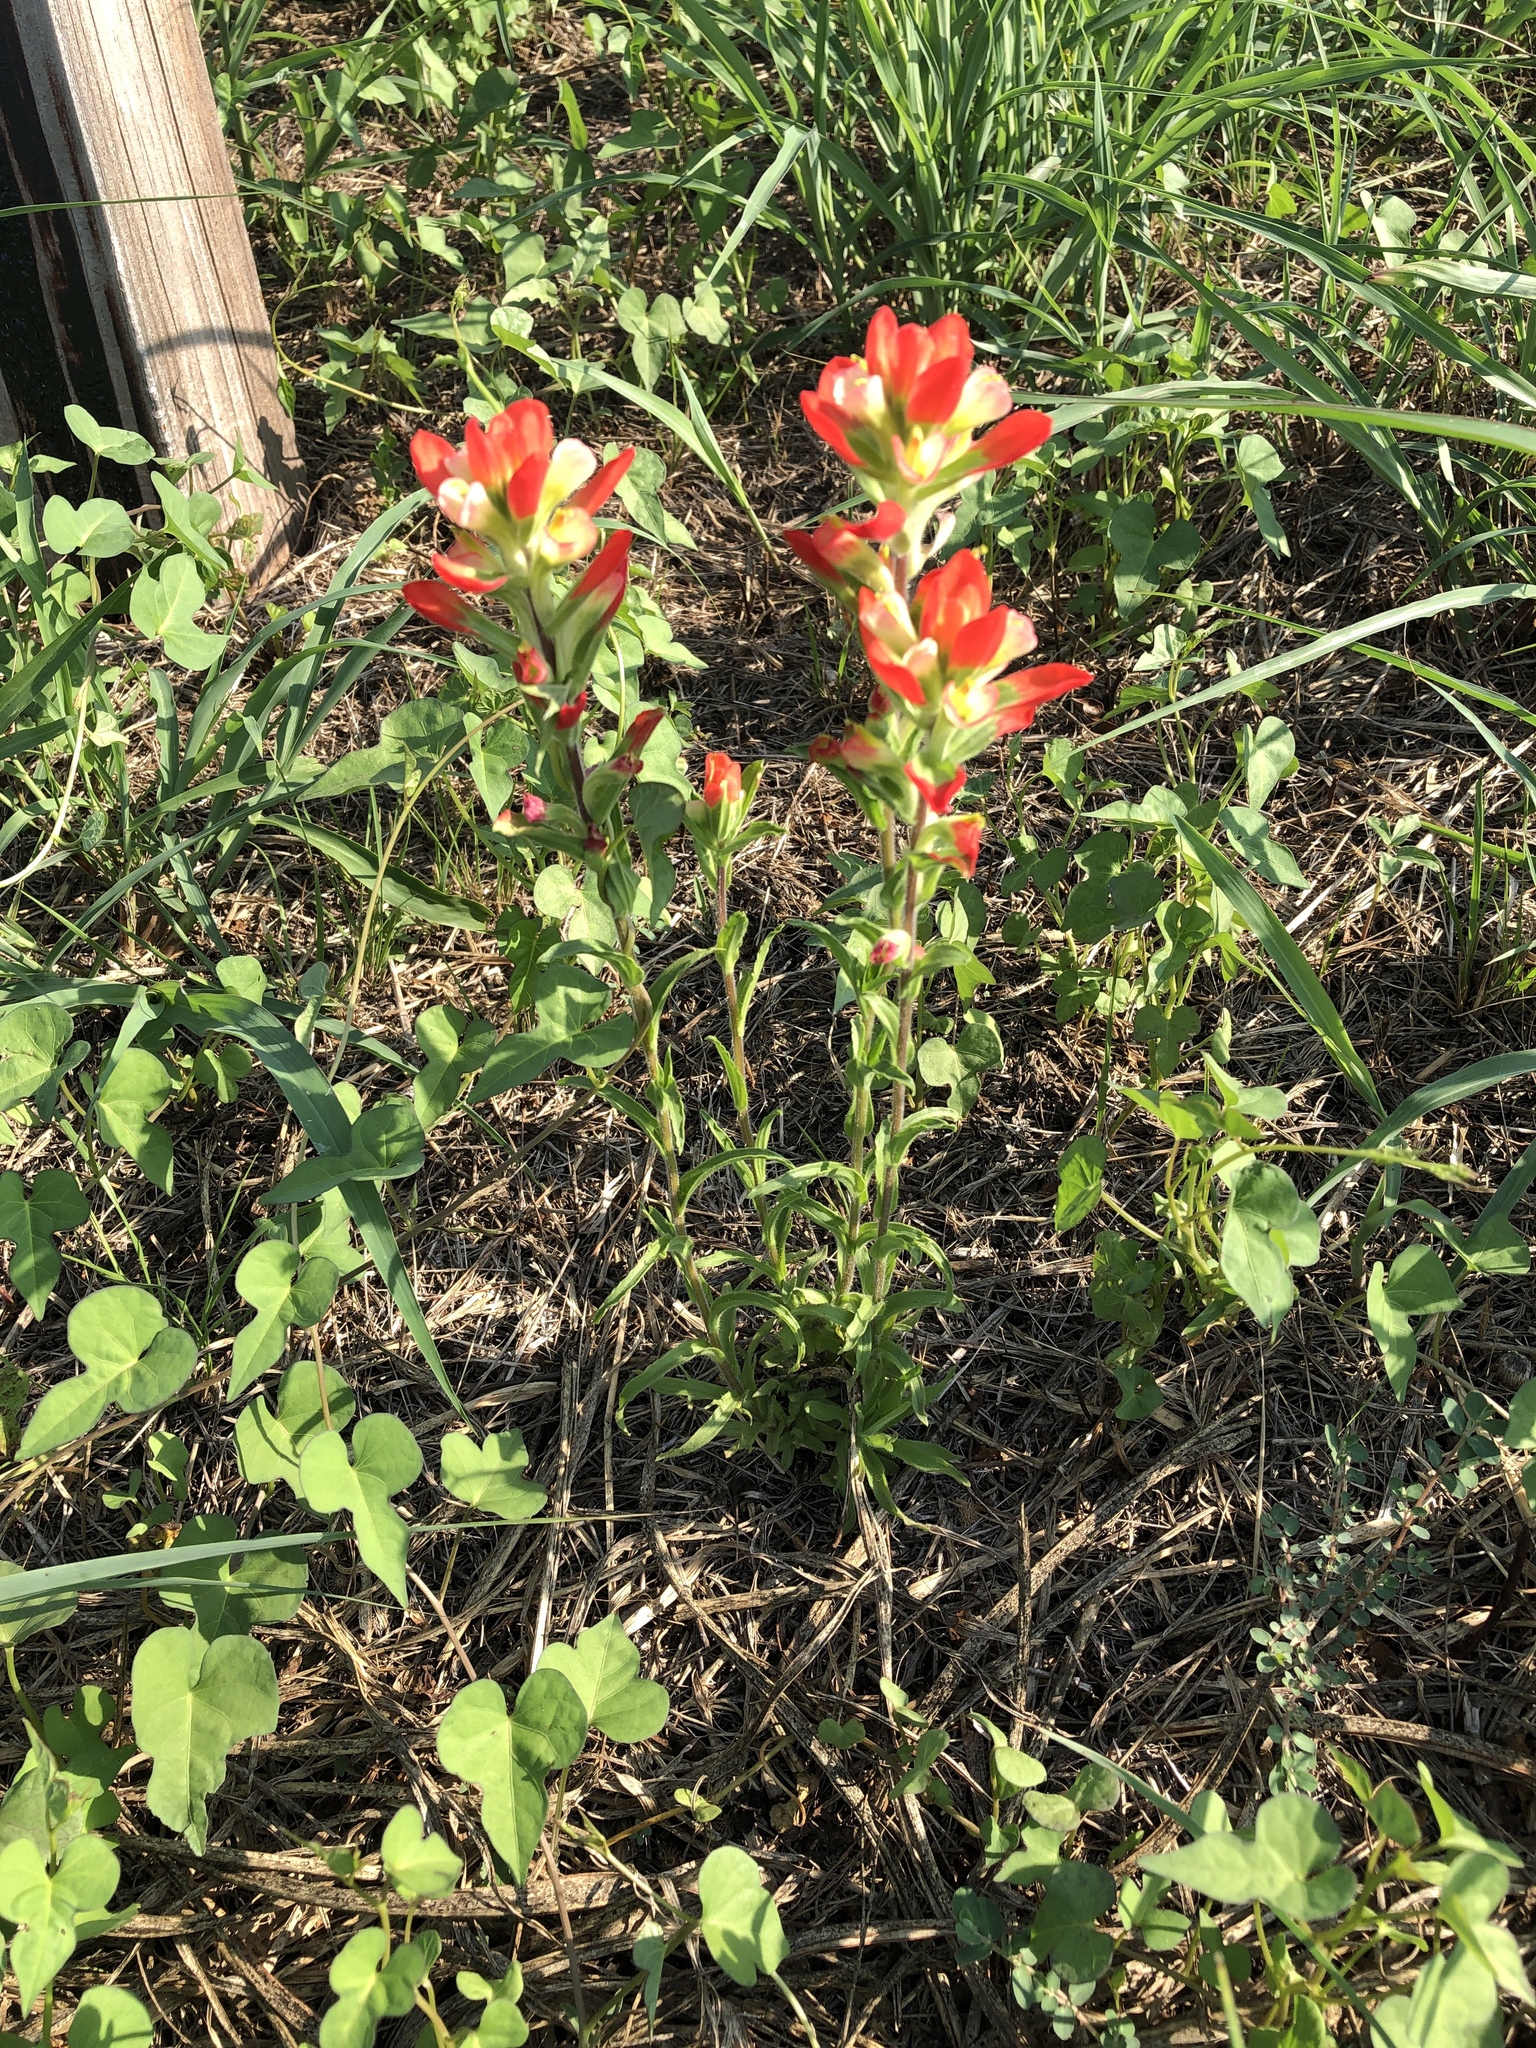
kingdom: Plantae
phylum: Tracheophyta
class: Magnoliopsida
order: Lamiales
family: Orobanchaceae
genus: Castilleja
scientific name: Castilleja indivisa
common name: Texas paintbrush
